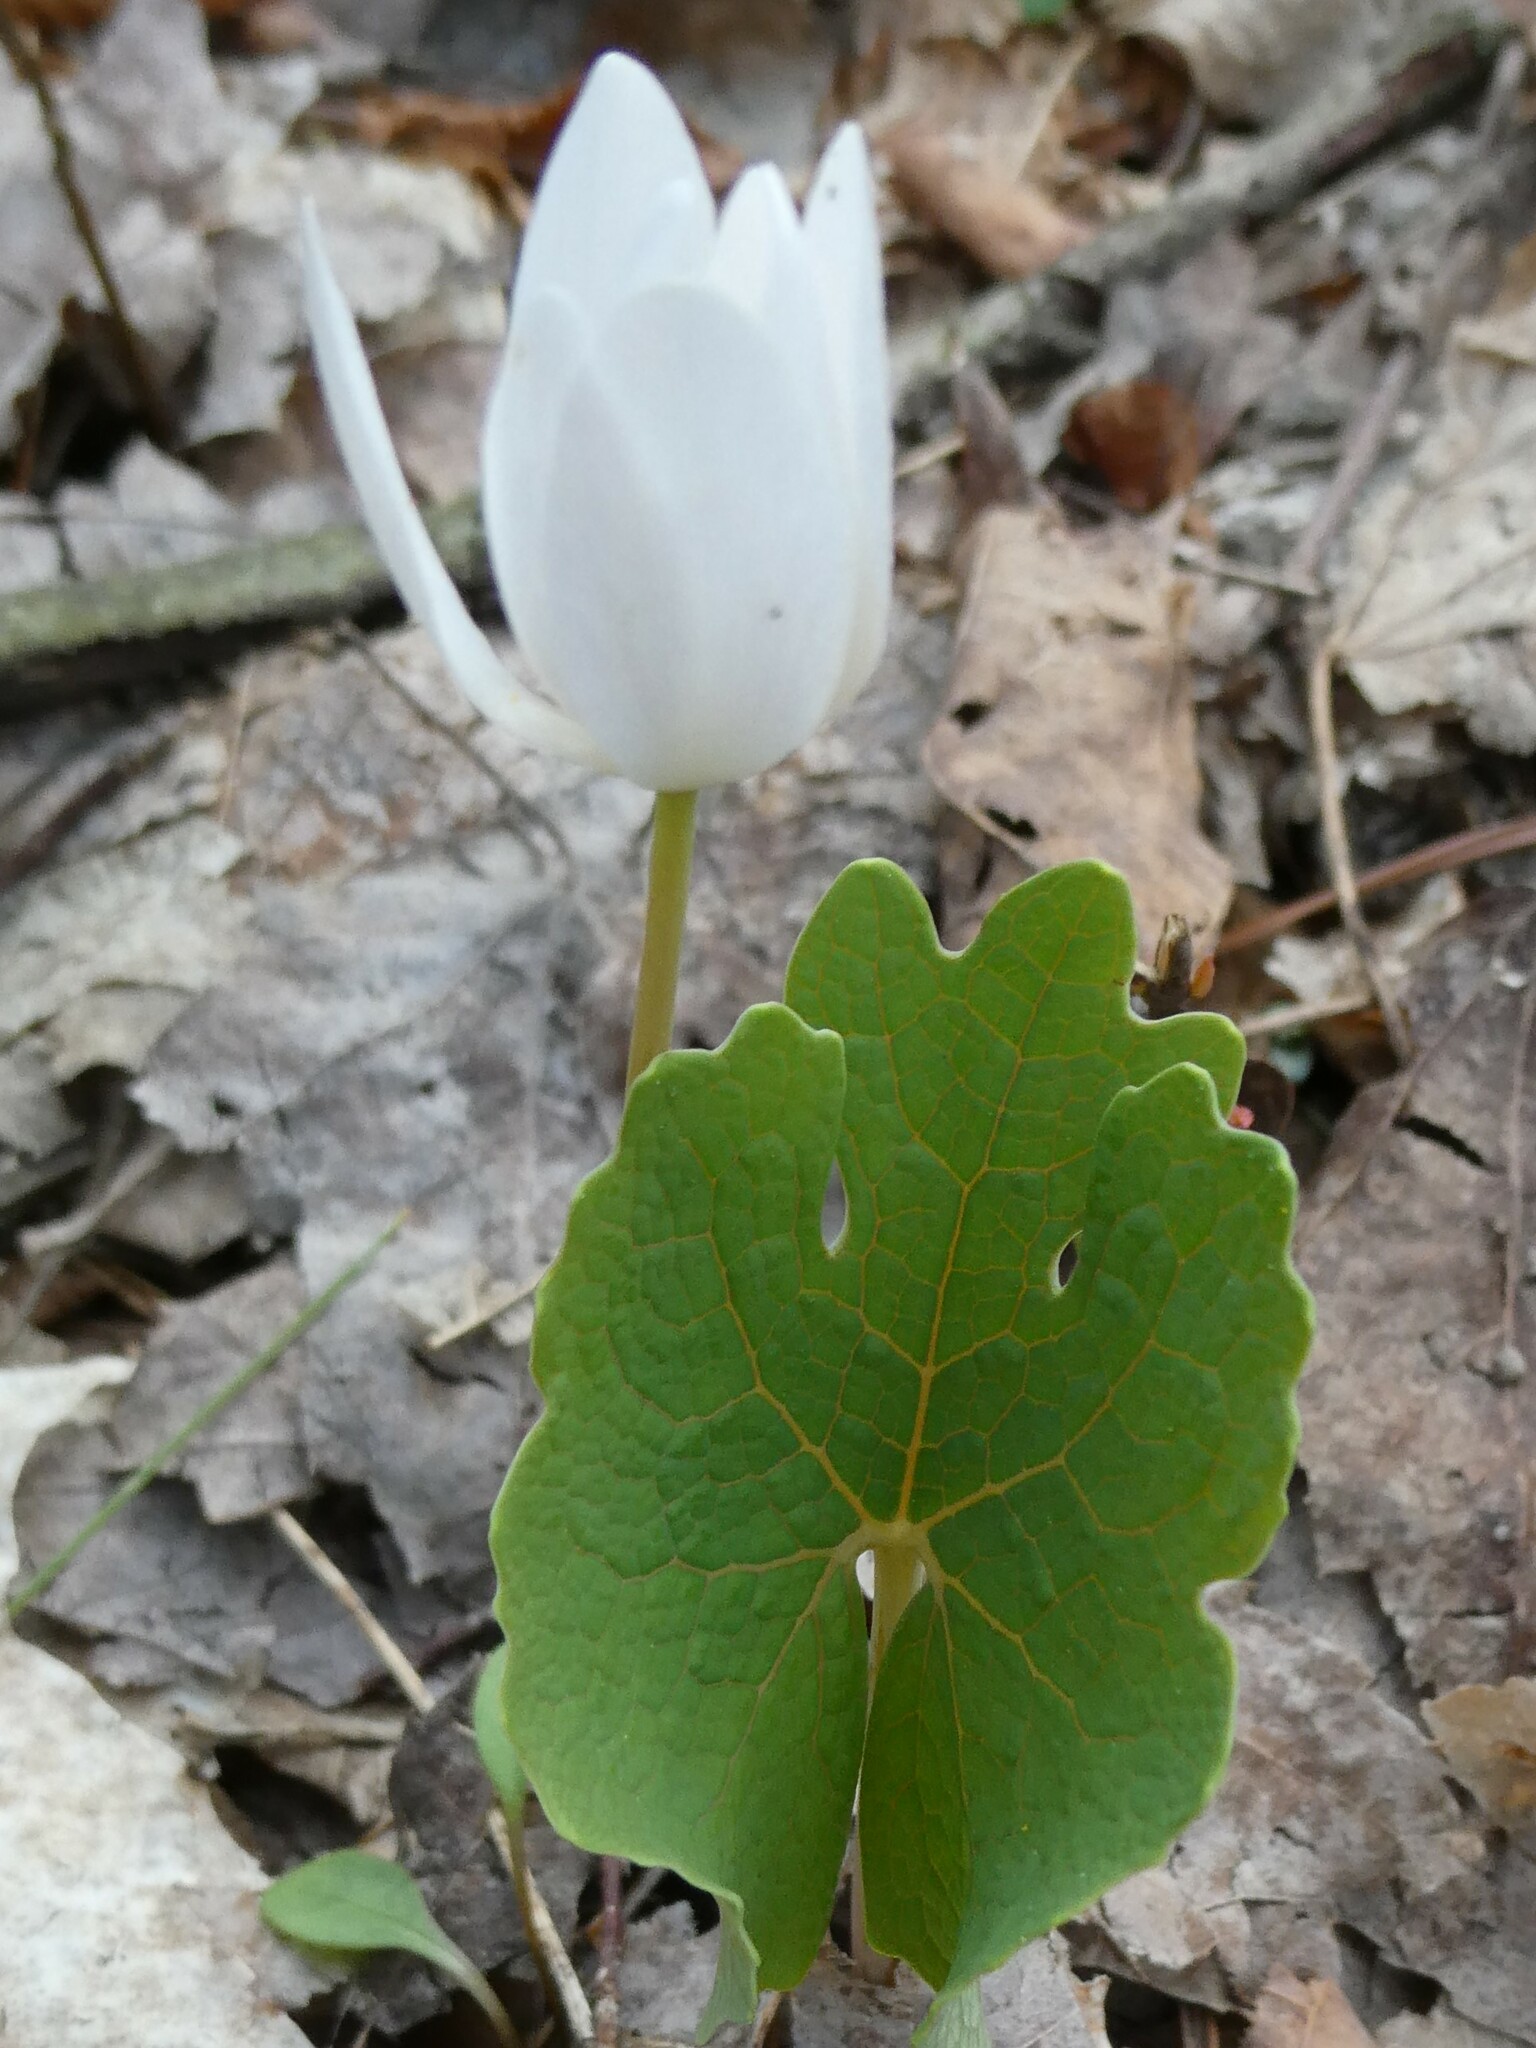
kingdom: Plantae
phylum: Tracheophyta
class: Magnoliopsida
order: Ranunculales
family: Papaveraceae
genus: Sanguinaria
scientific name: Sanguinaria canadensis
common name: Bloodroot
